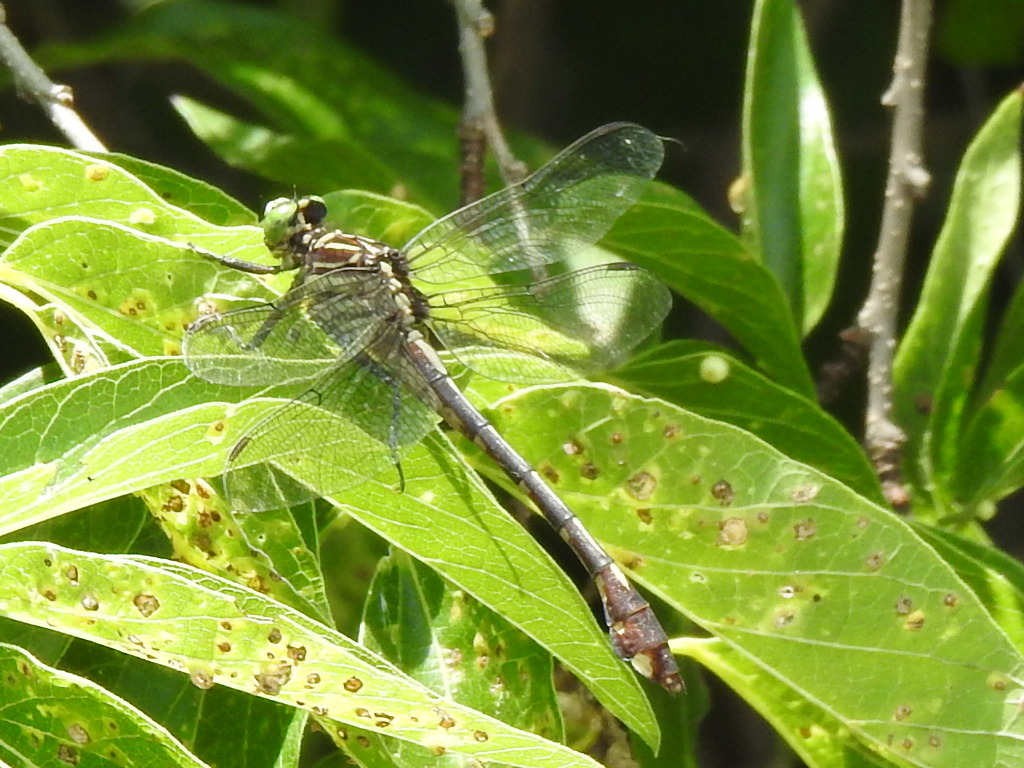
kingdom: Animalia
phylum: Arthropoda
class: Insecta
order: Odonata
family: Gomphidae
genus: Gomphurus
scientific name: Gomphurus vastus
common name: Cobra clubtail
